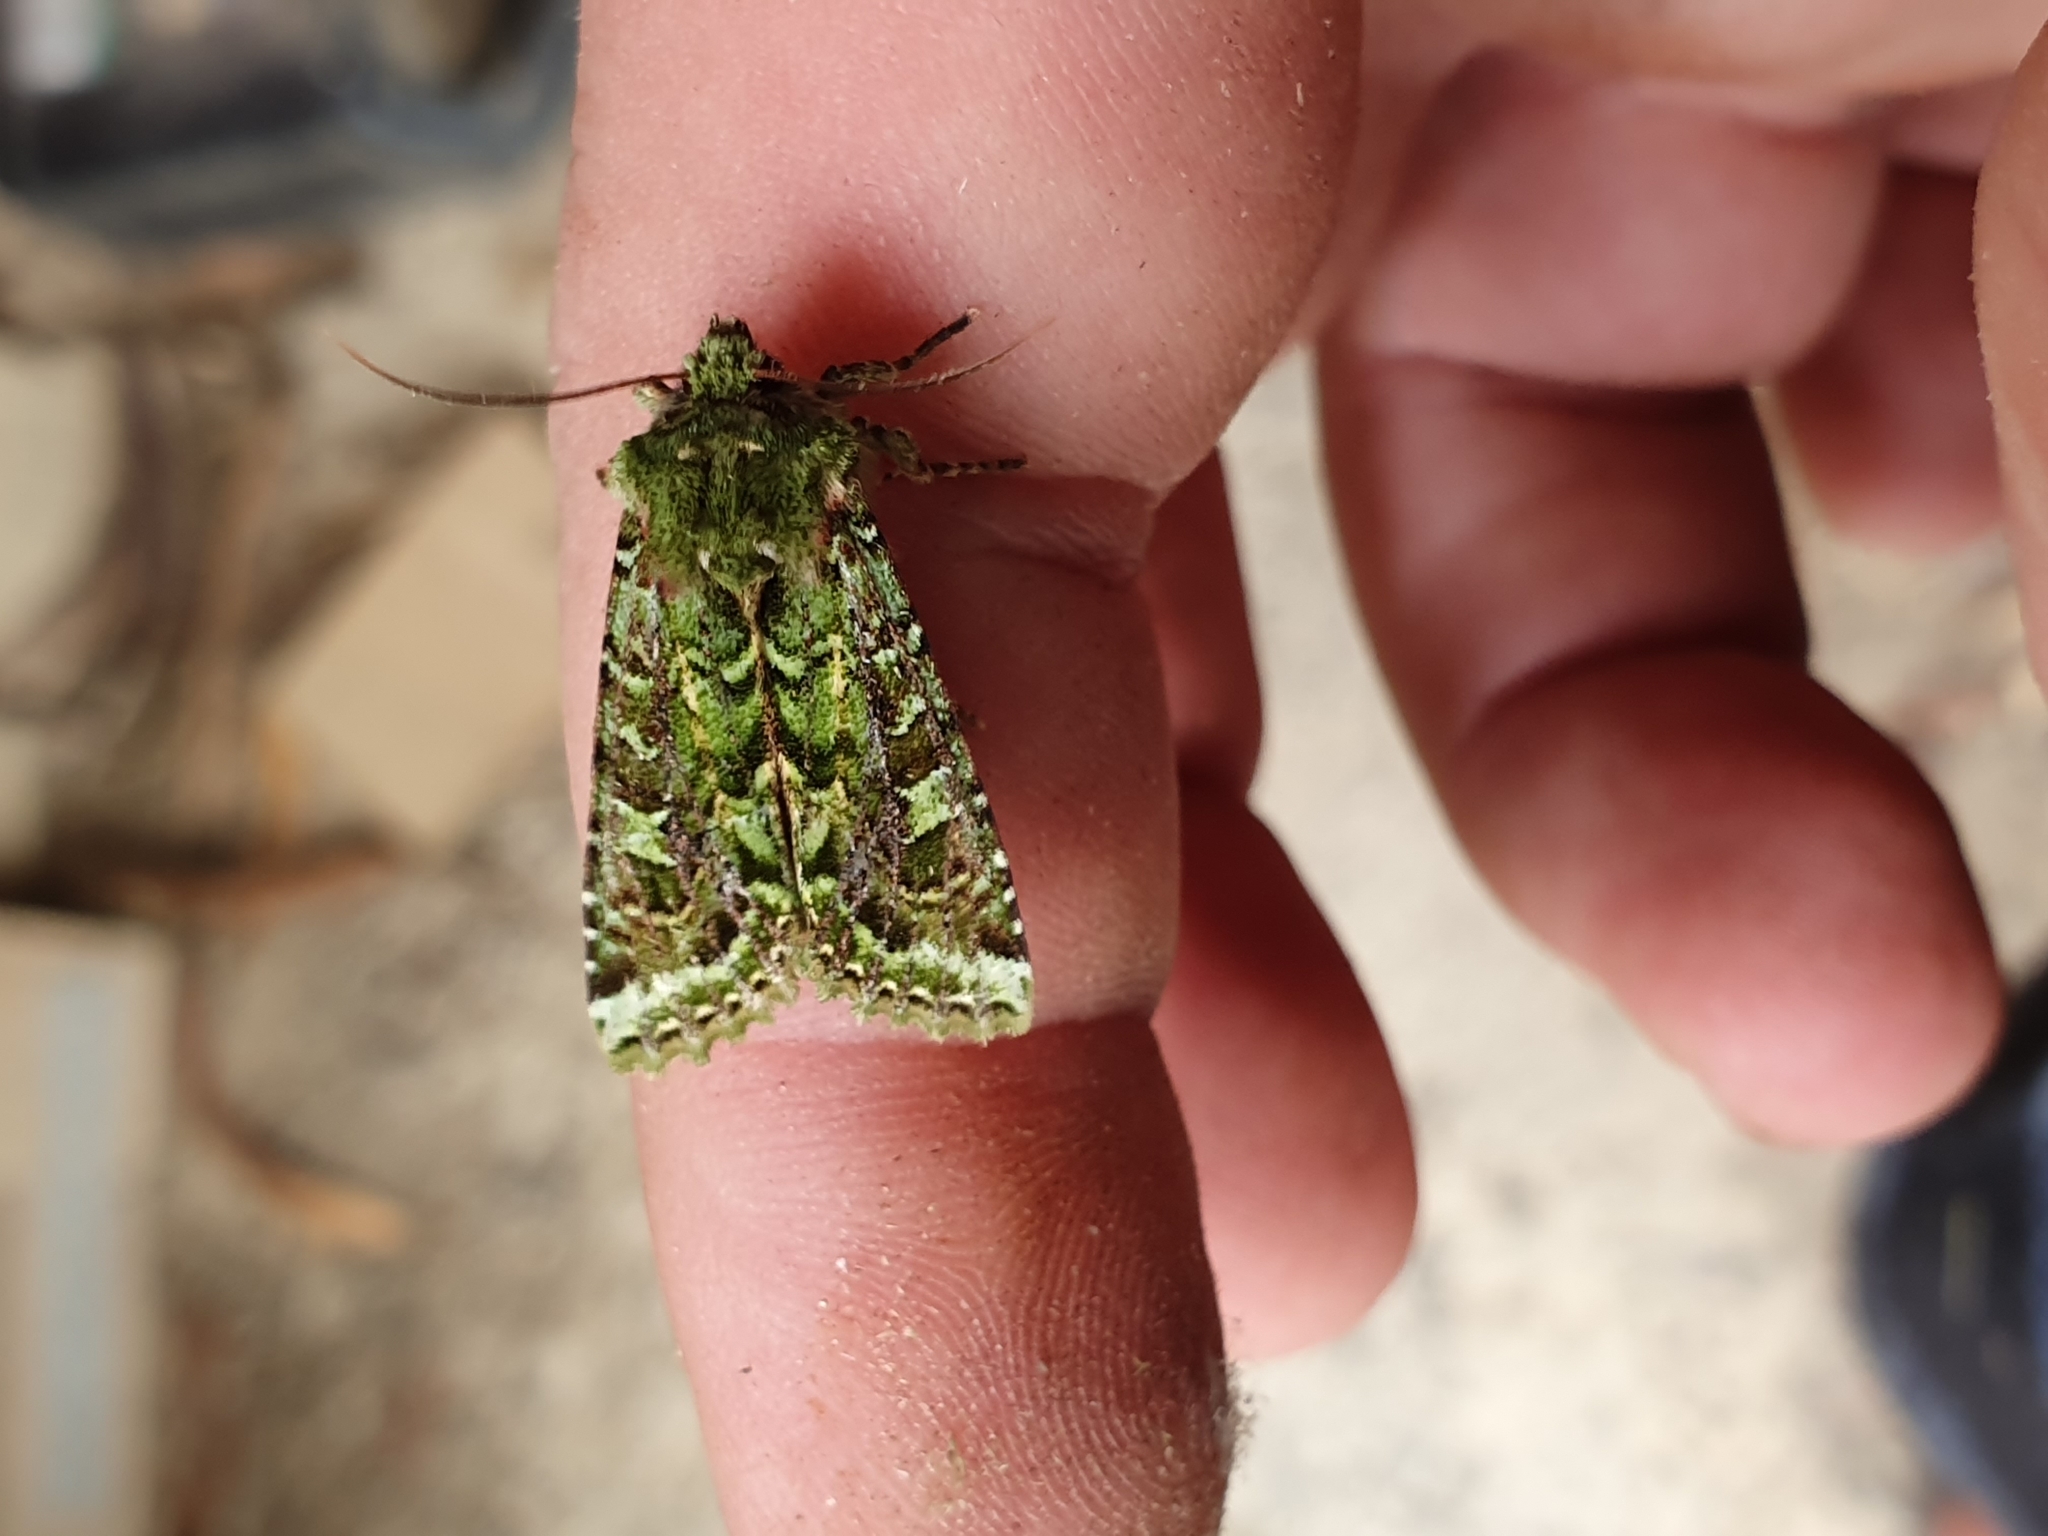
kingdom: Animalia
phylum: Arthropoda
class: Insecta
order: Lepidoptera
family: Noctuidae
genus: Feredayia
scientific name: Feredayia grammosa
